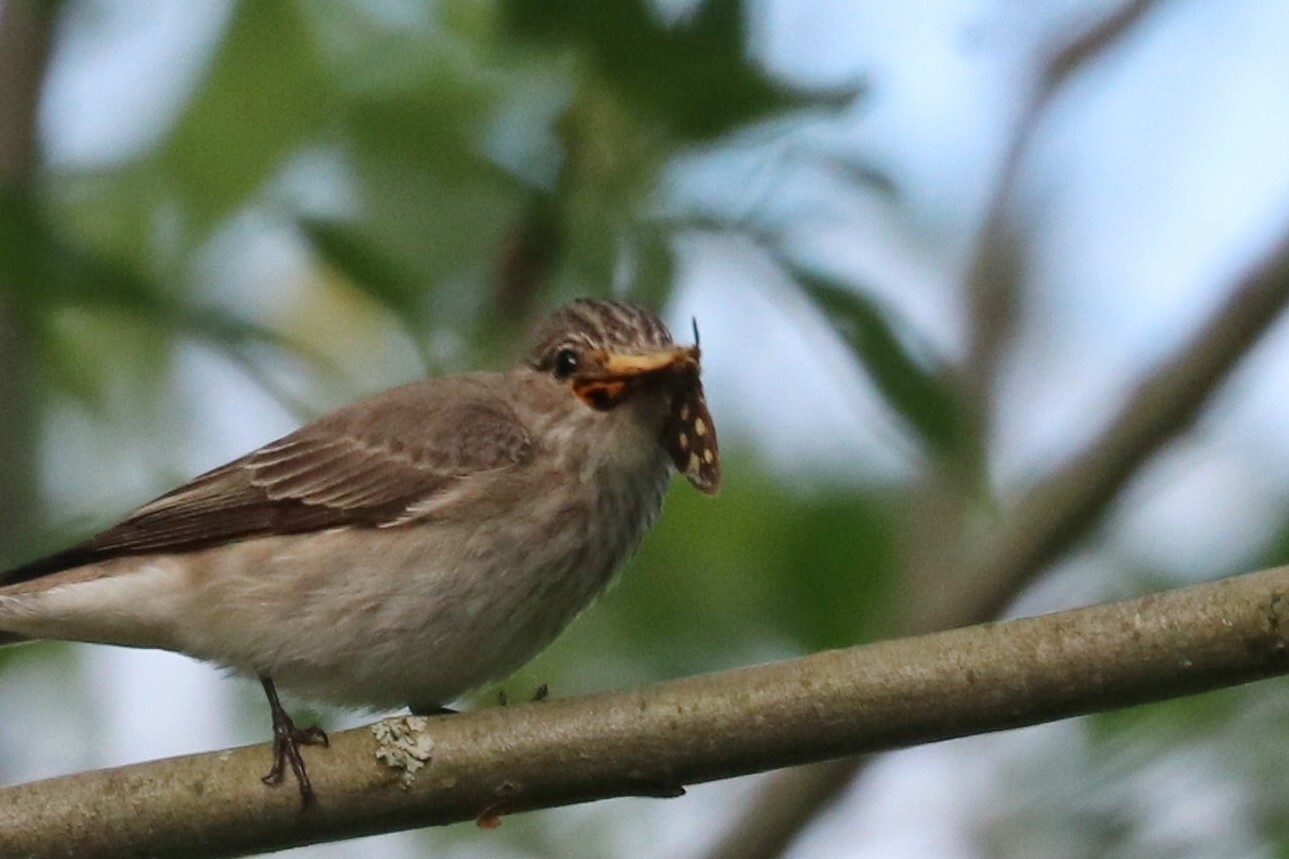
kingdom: Animalia
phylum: Arthropoda
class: Insecta
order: Lepidoptera
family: Erebidae
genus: Hyphoraia
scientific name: Hyphoraia aulica
